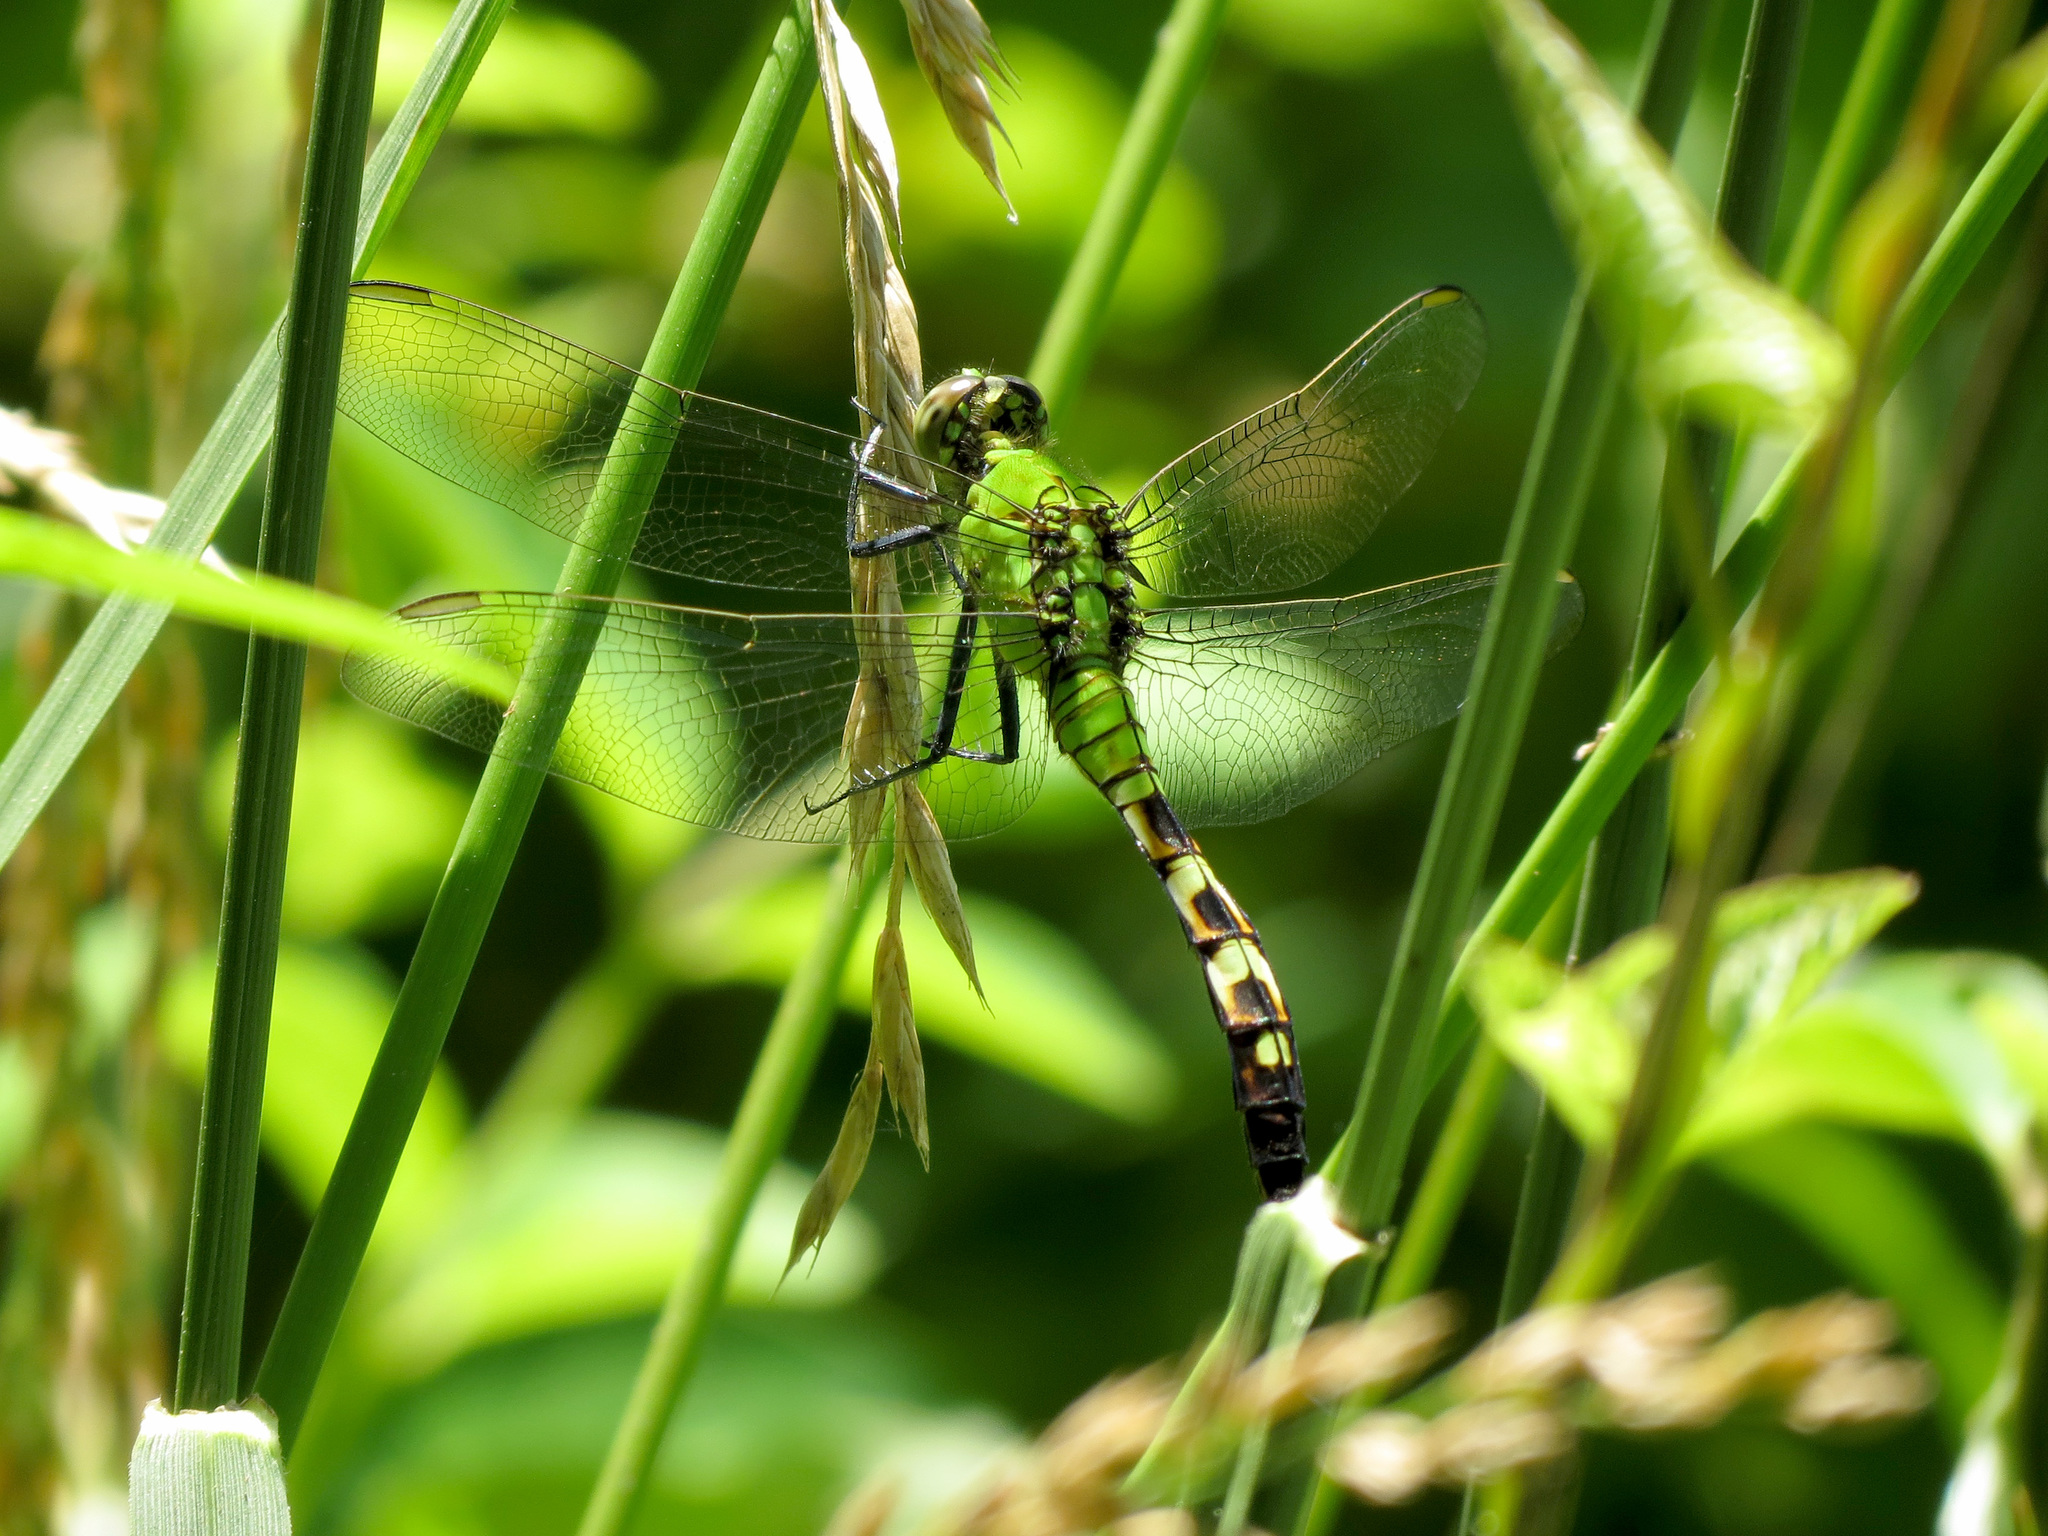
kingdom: Animalia
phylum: Arthropoda
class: Insecta
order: Odonata
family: Libellulidae
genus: Erythemis
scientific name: Erythemis simplicicollis
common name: Eastern pondhawk
